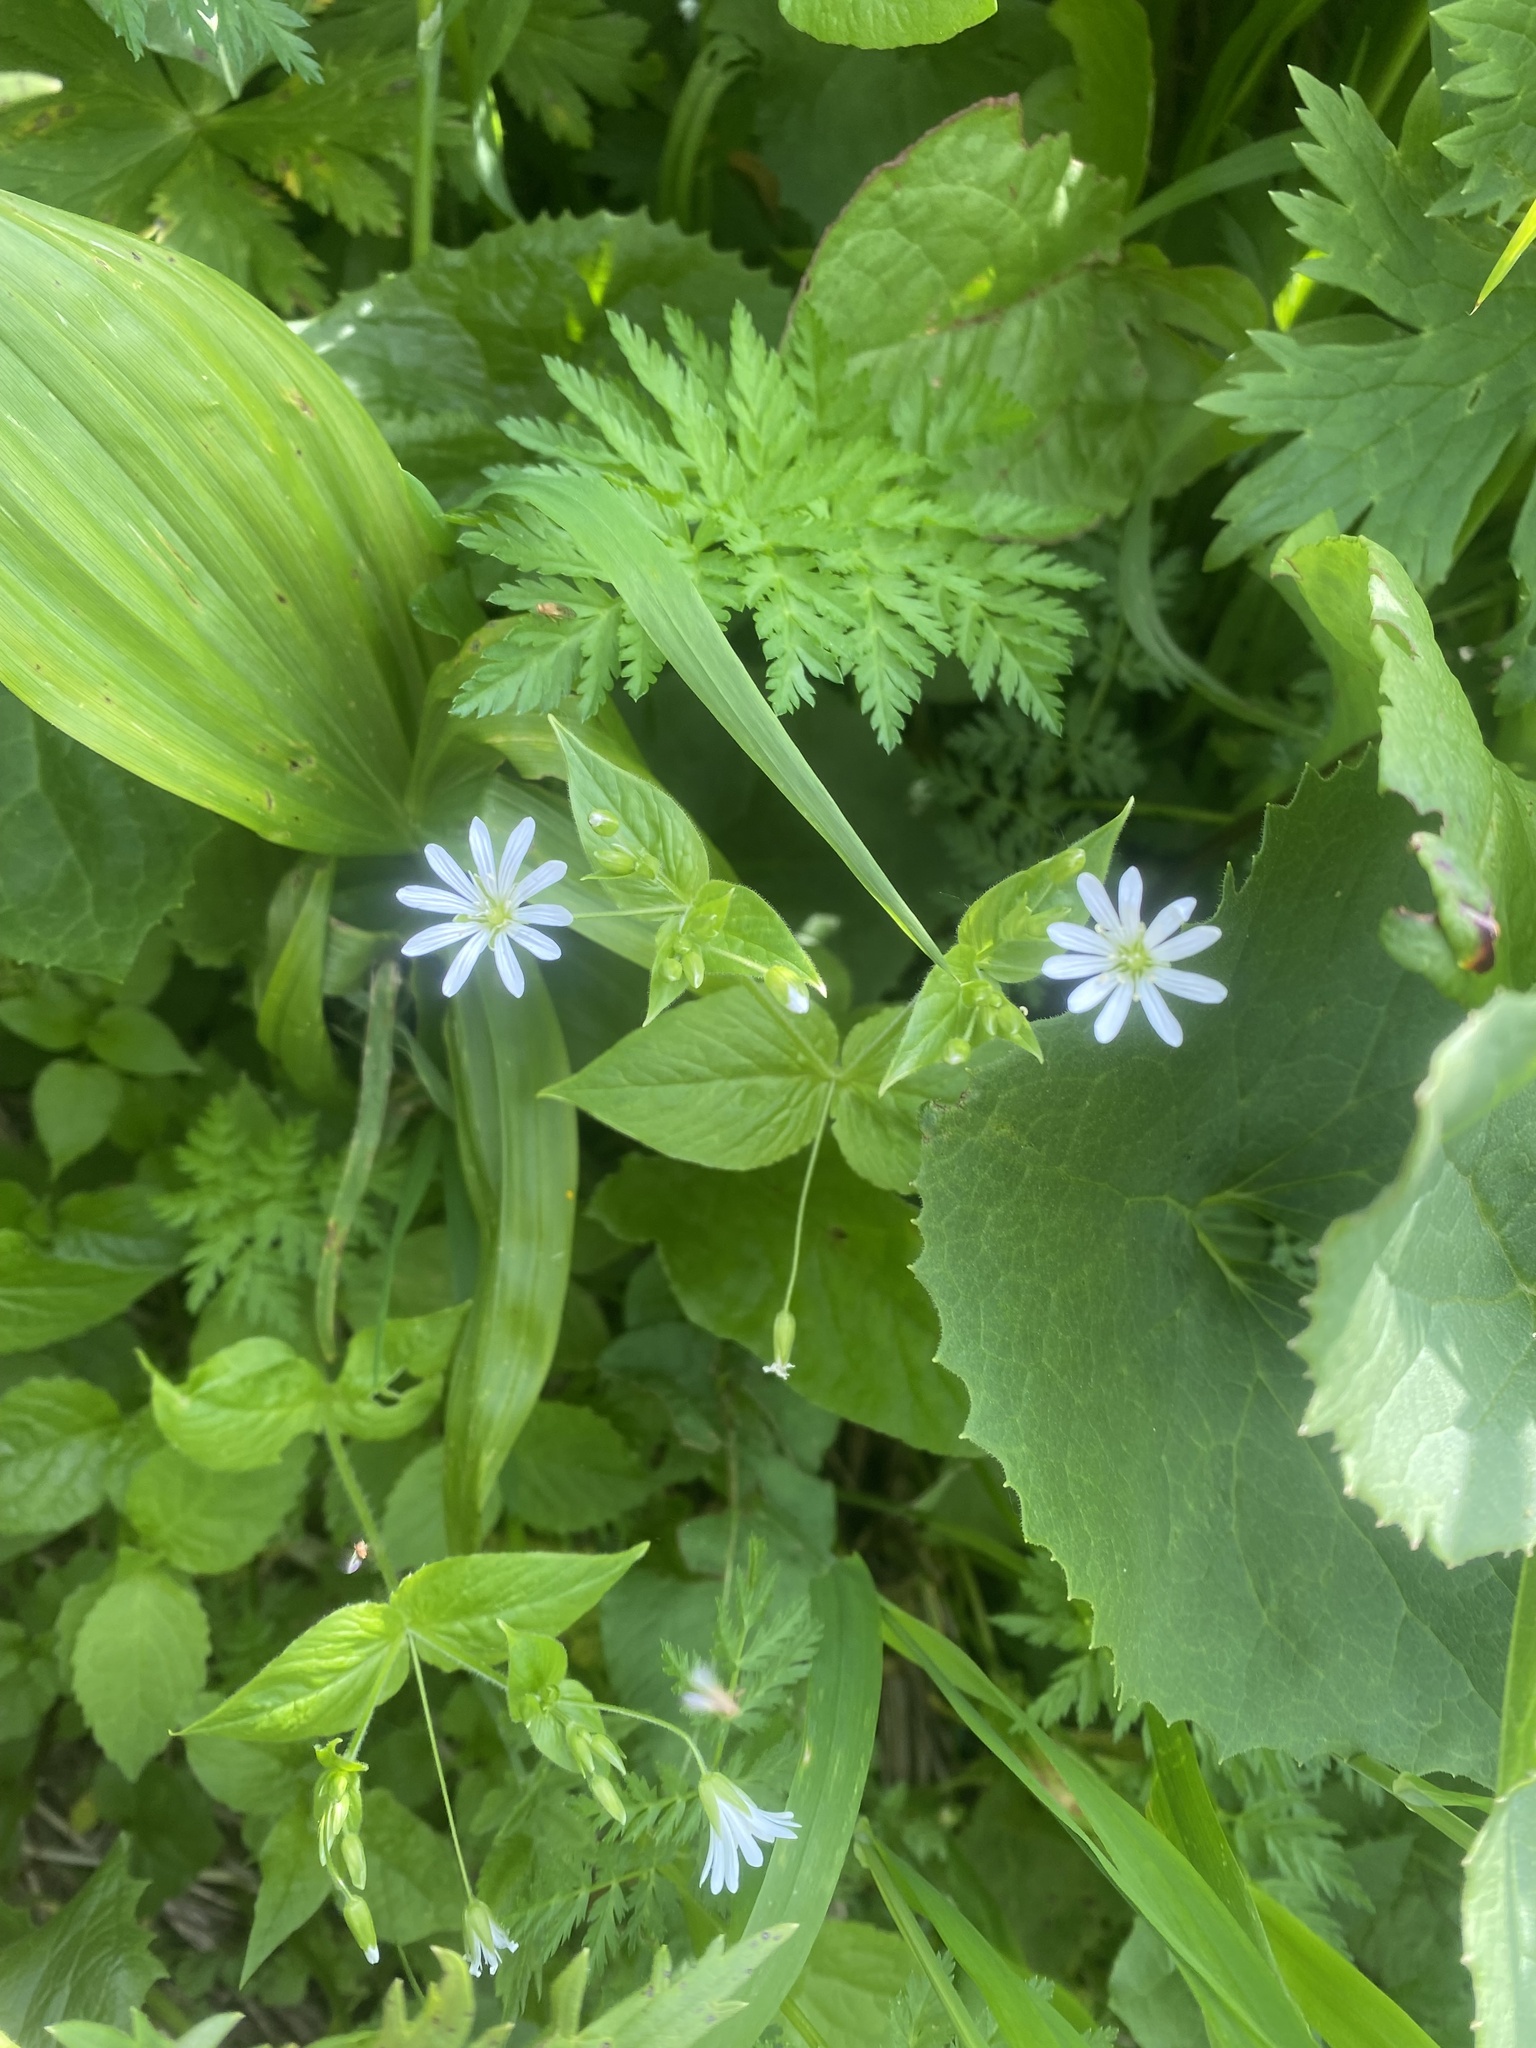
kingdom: Plantae
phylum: Tracheophyta
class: Magnoliopsida
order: Caryophyllales
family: Caryophyllaceae
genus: Stellaria
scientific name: Stellaria nemorum
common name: Wood stitchwort
